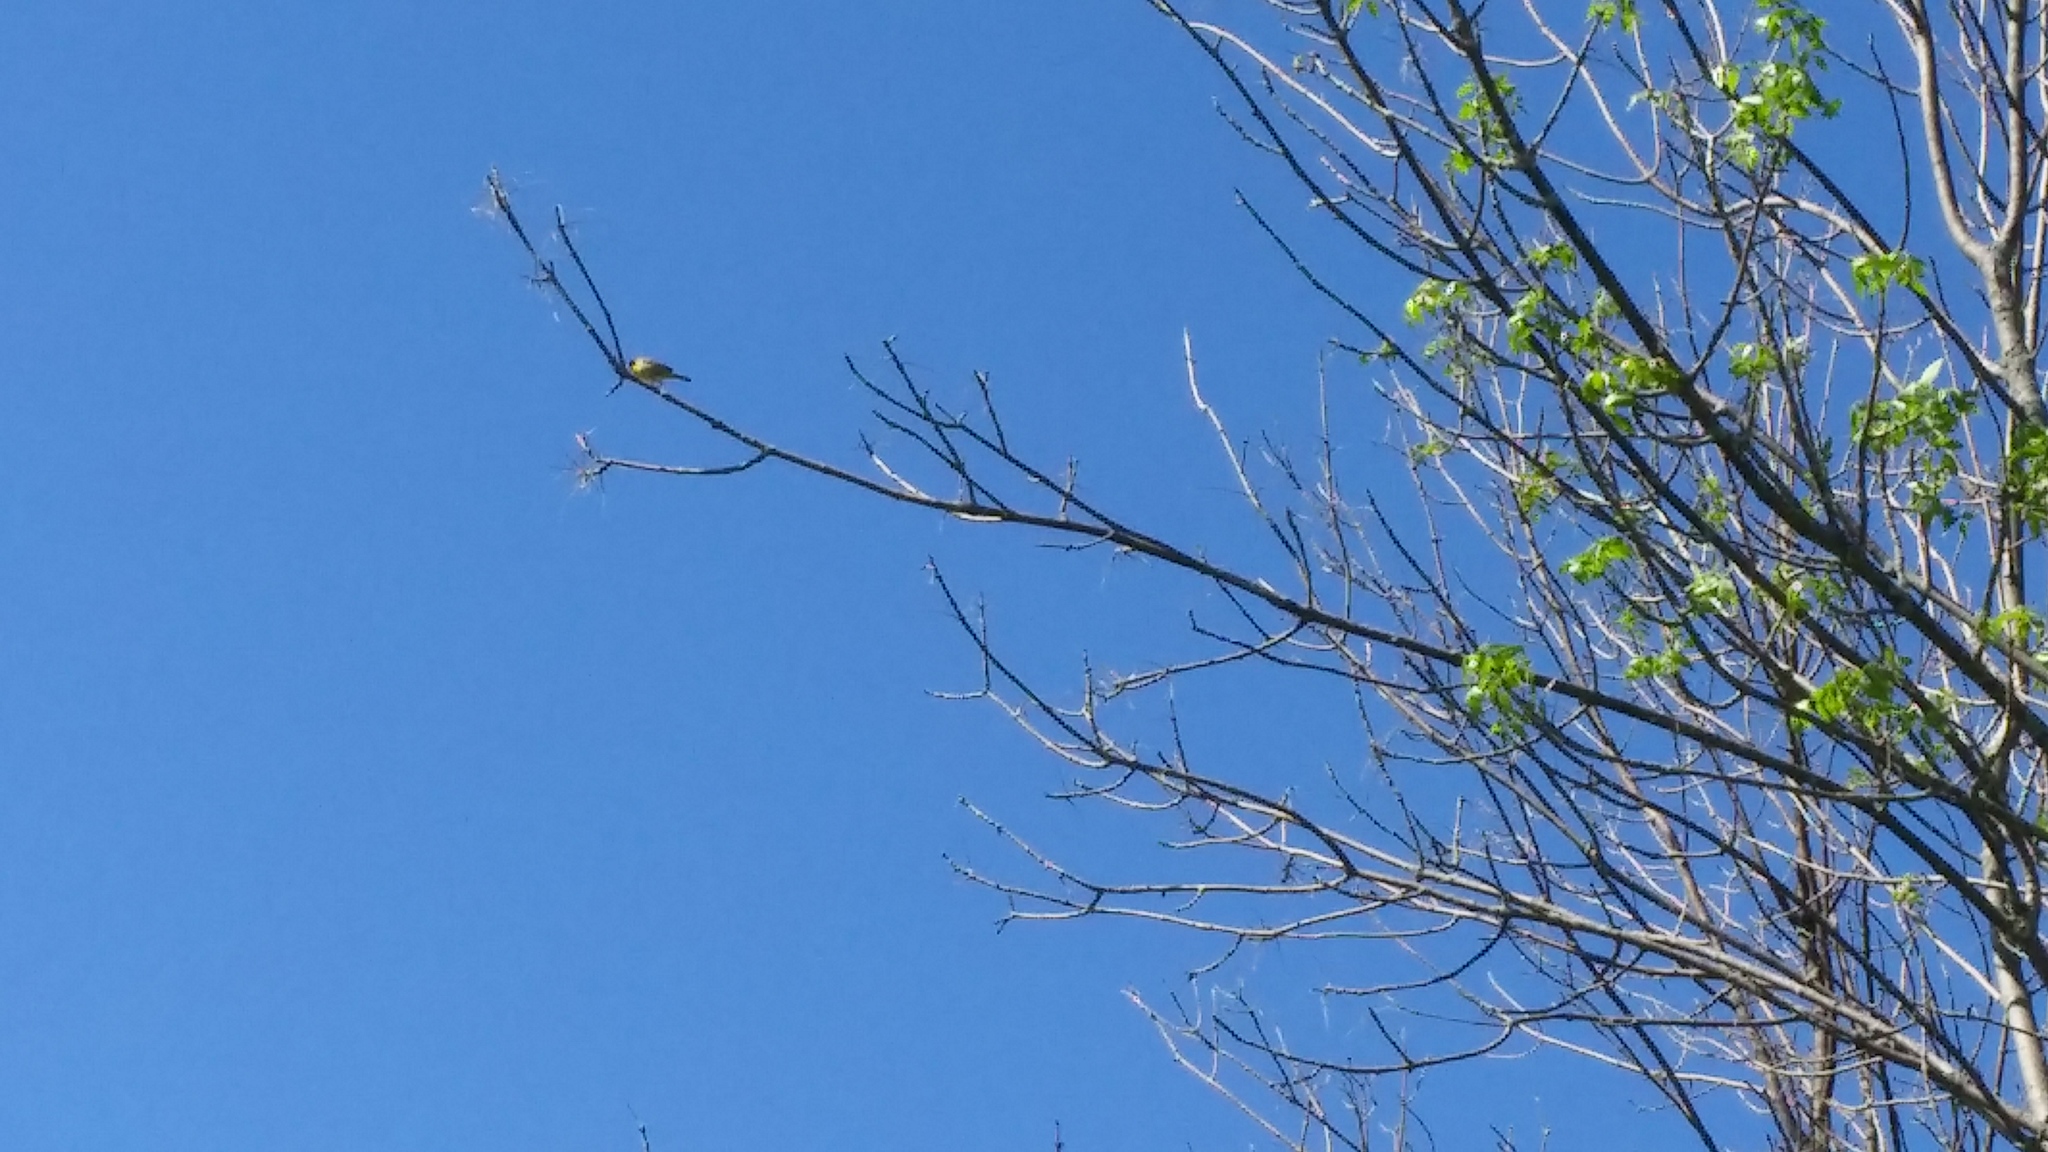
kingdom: Animalia
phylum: Chordata
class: Aves
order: Passeriformes
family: Parulidae
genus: Geothlypis
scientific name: Geothlypis trichas
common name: Common yellowthroat
